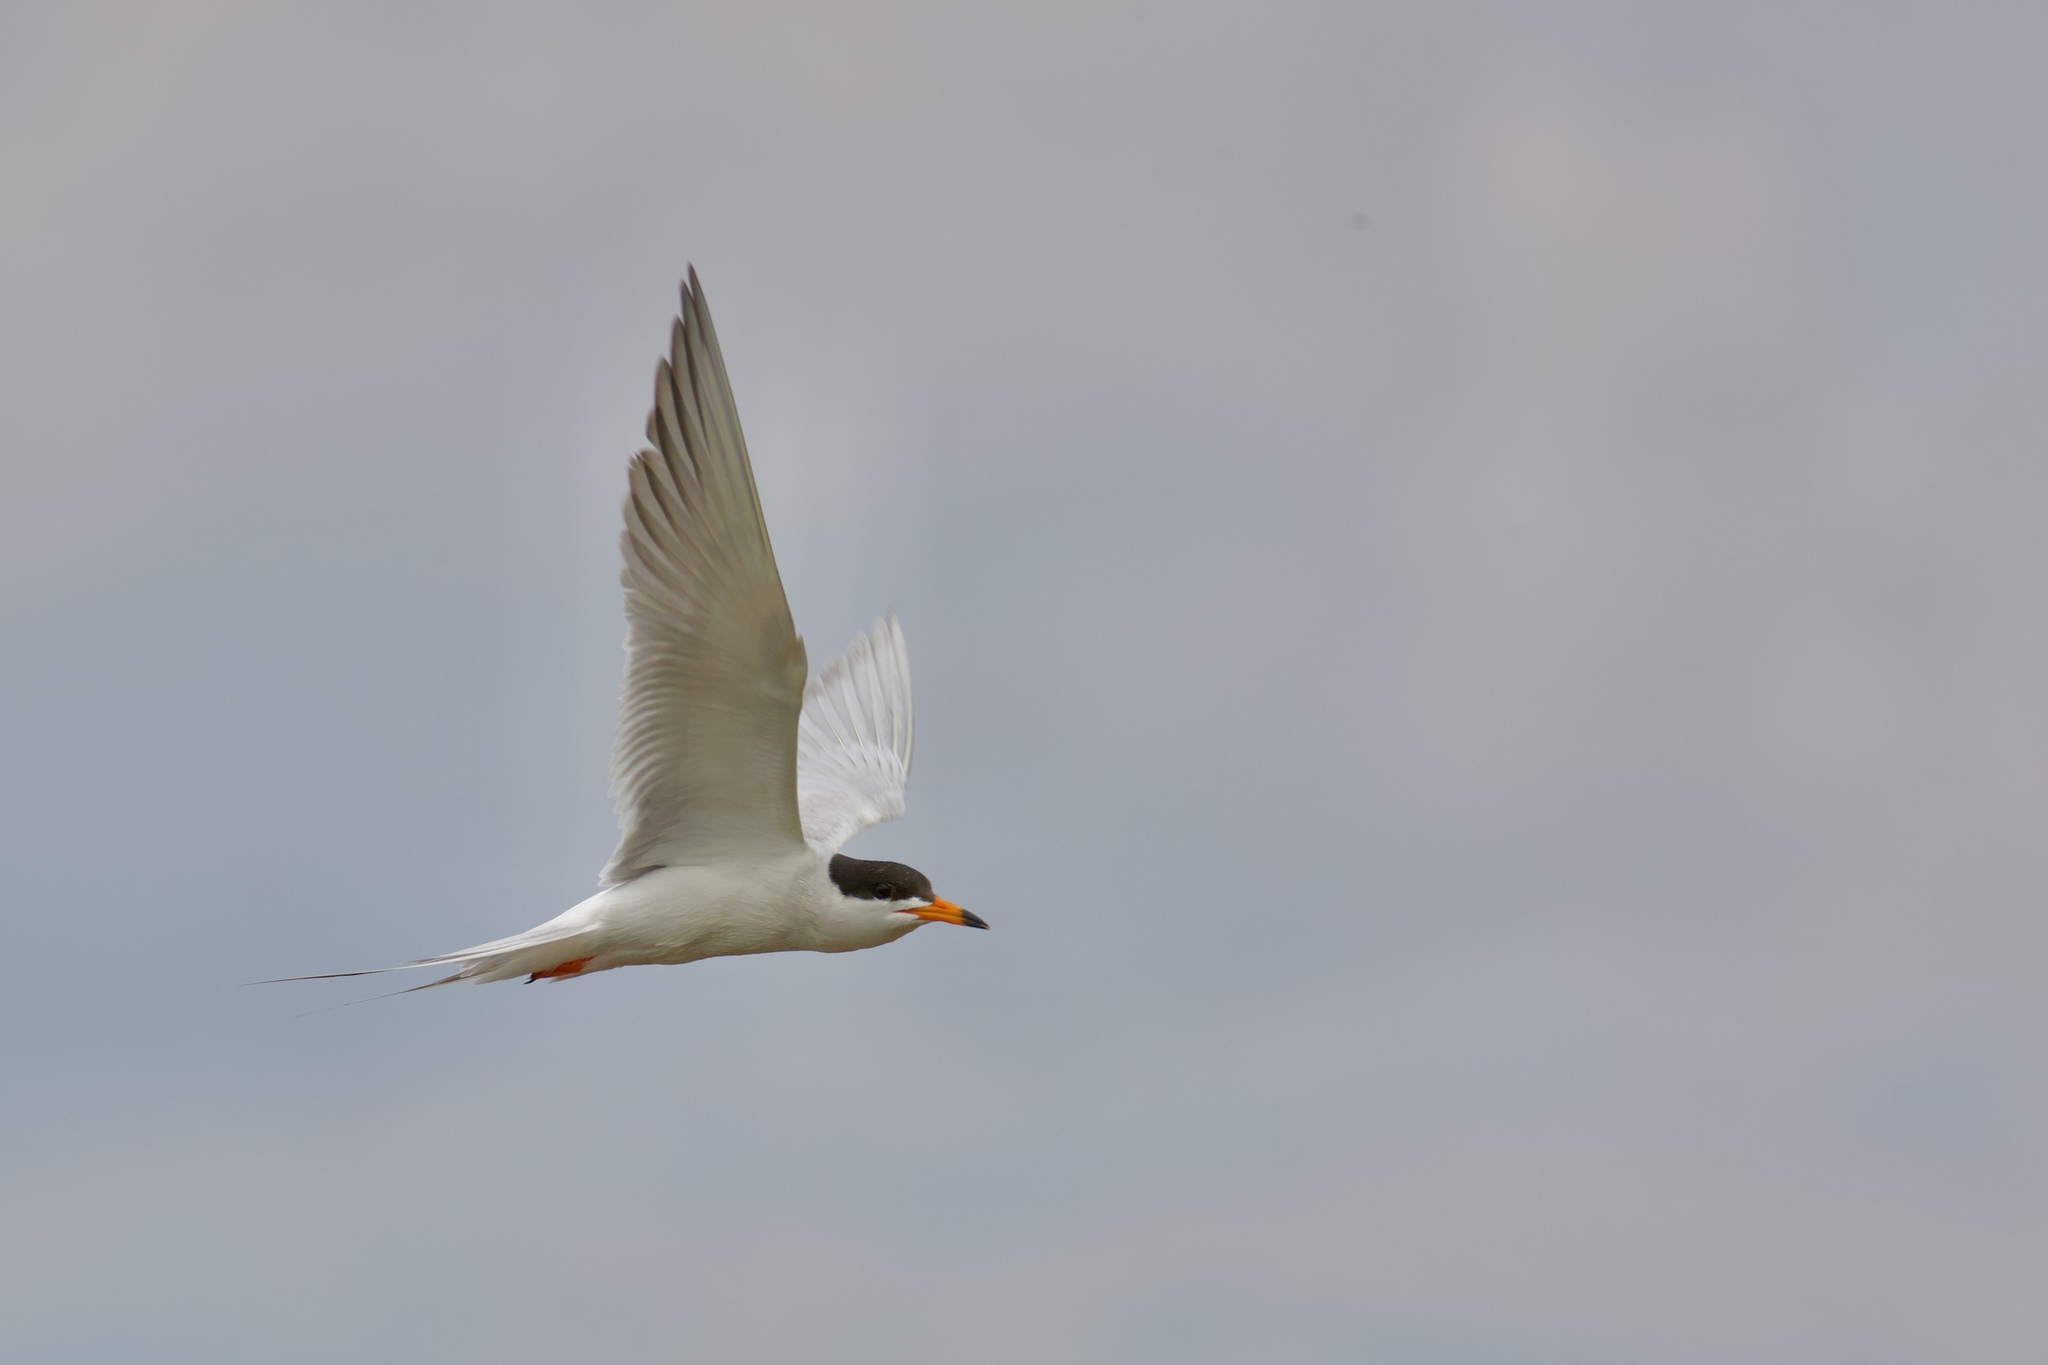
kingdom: Animalia
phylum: Chordata
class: Aves
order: Charadriiformes
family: Laridae
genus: Sterna
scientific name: Sterna forsteri
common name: Forster's tern
